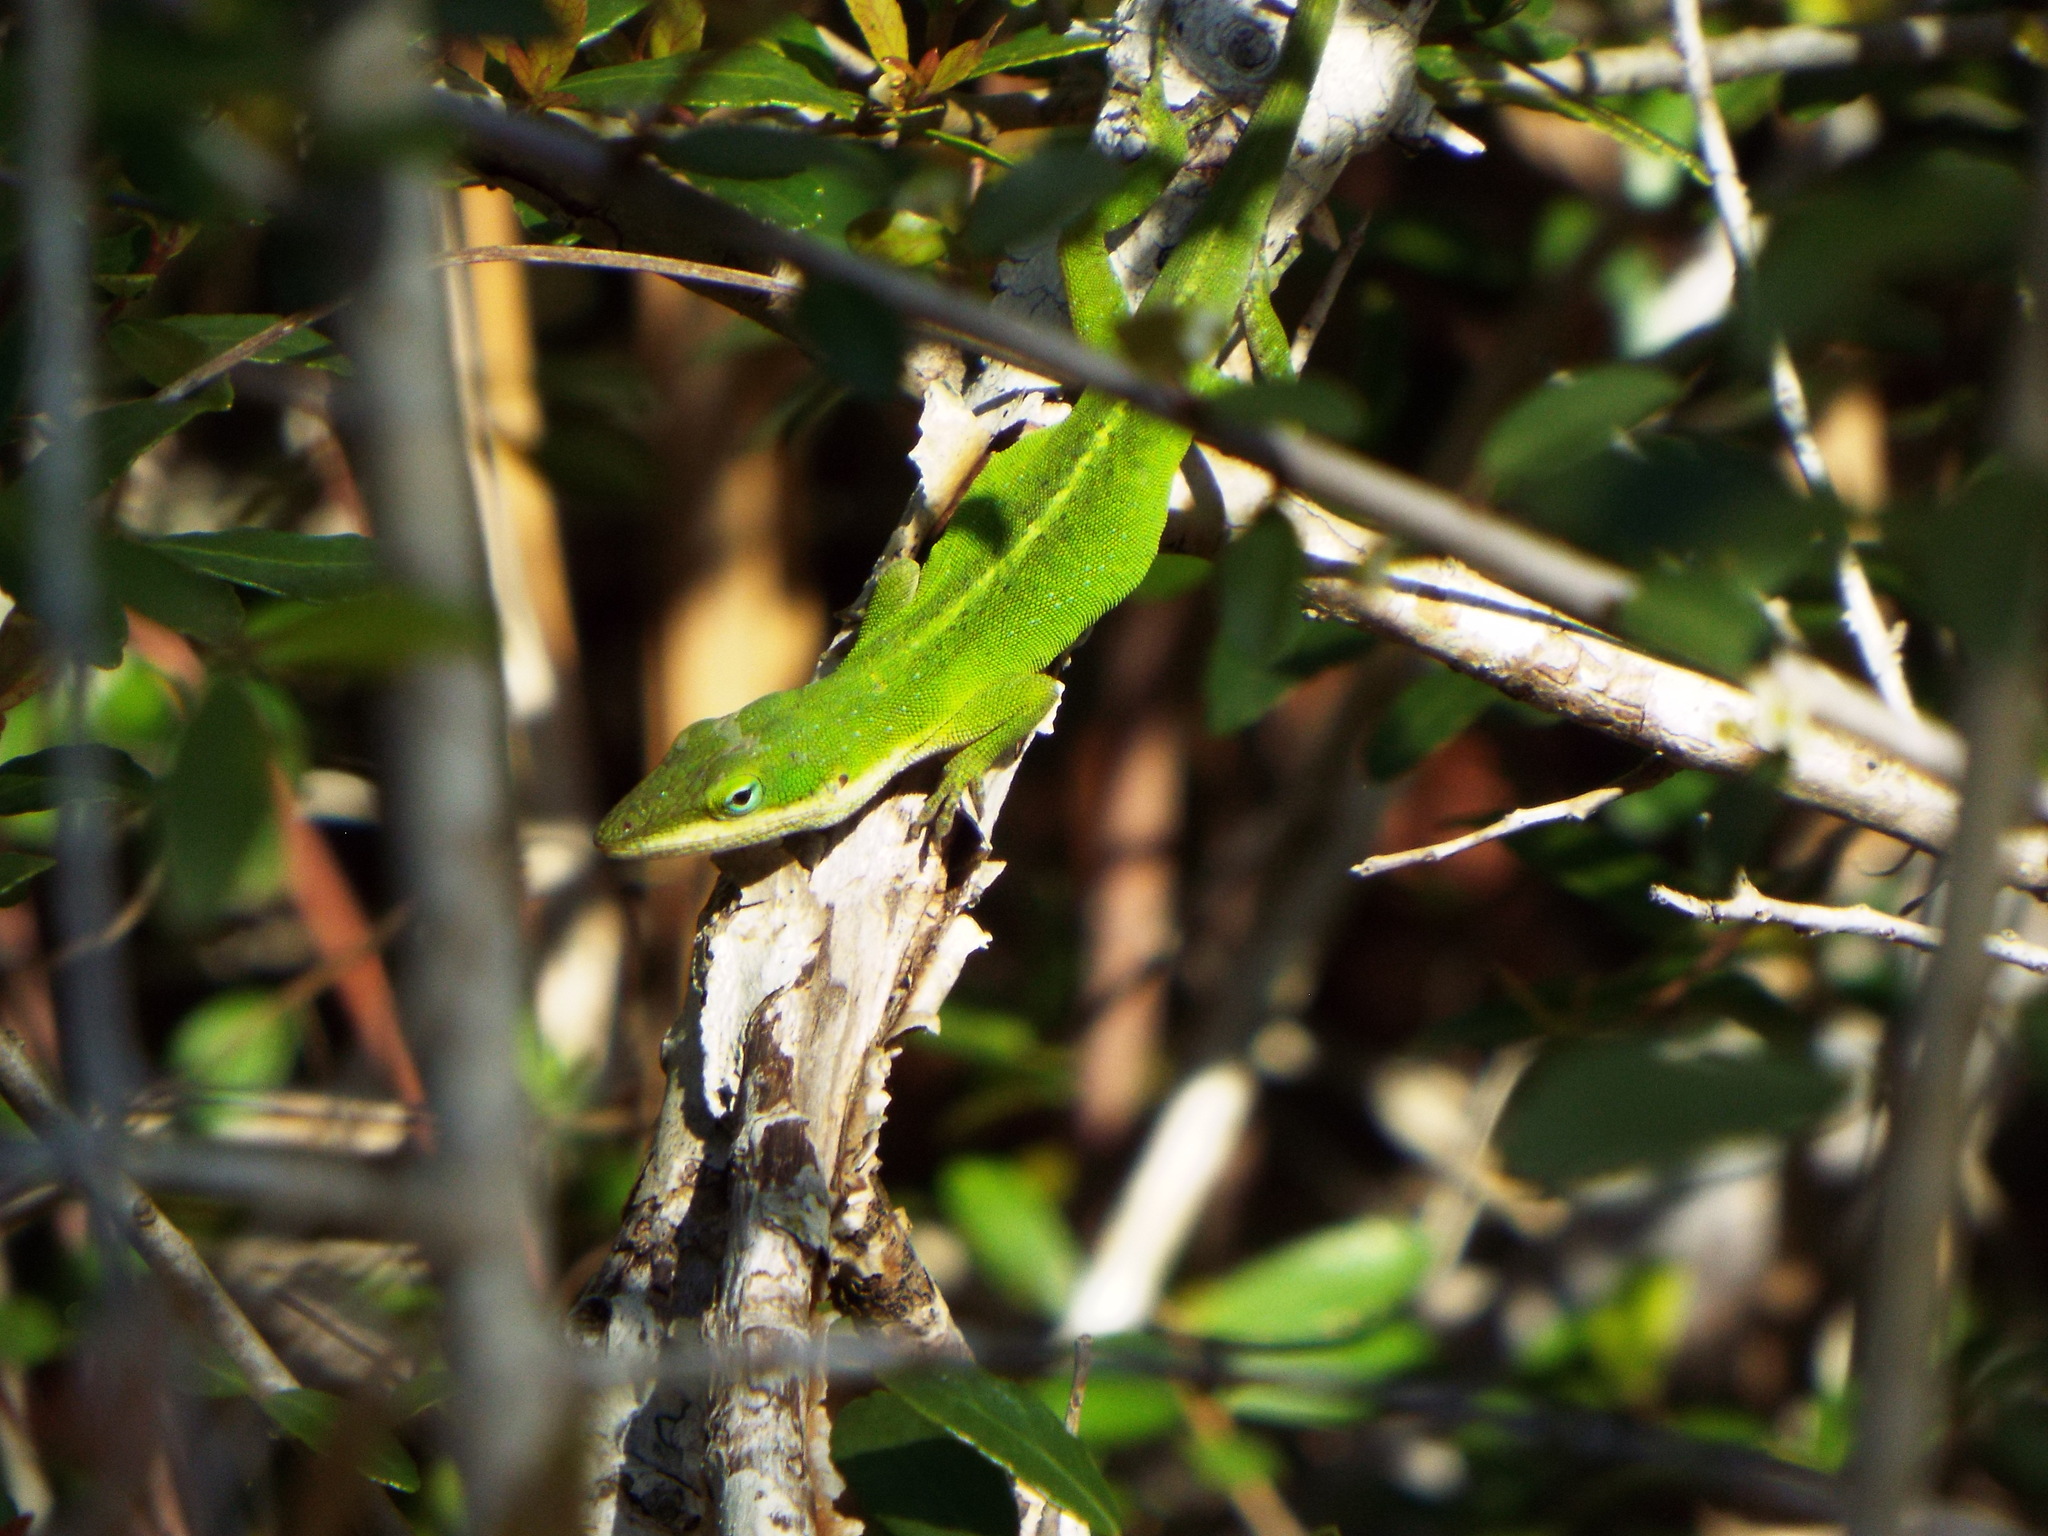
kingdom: Animalia
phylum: Chordata
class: Squamata
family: Dactyloidae
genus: Anolis
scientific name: Anolis carolinensis
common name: Green anole
